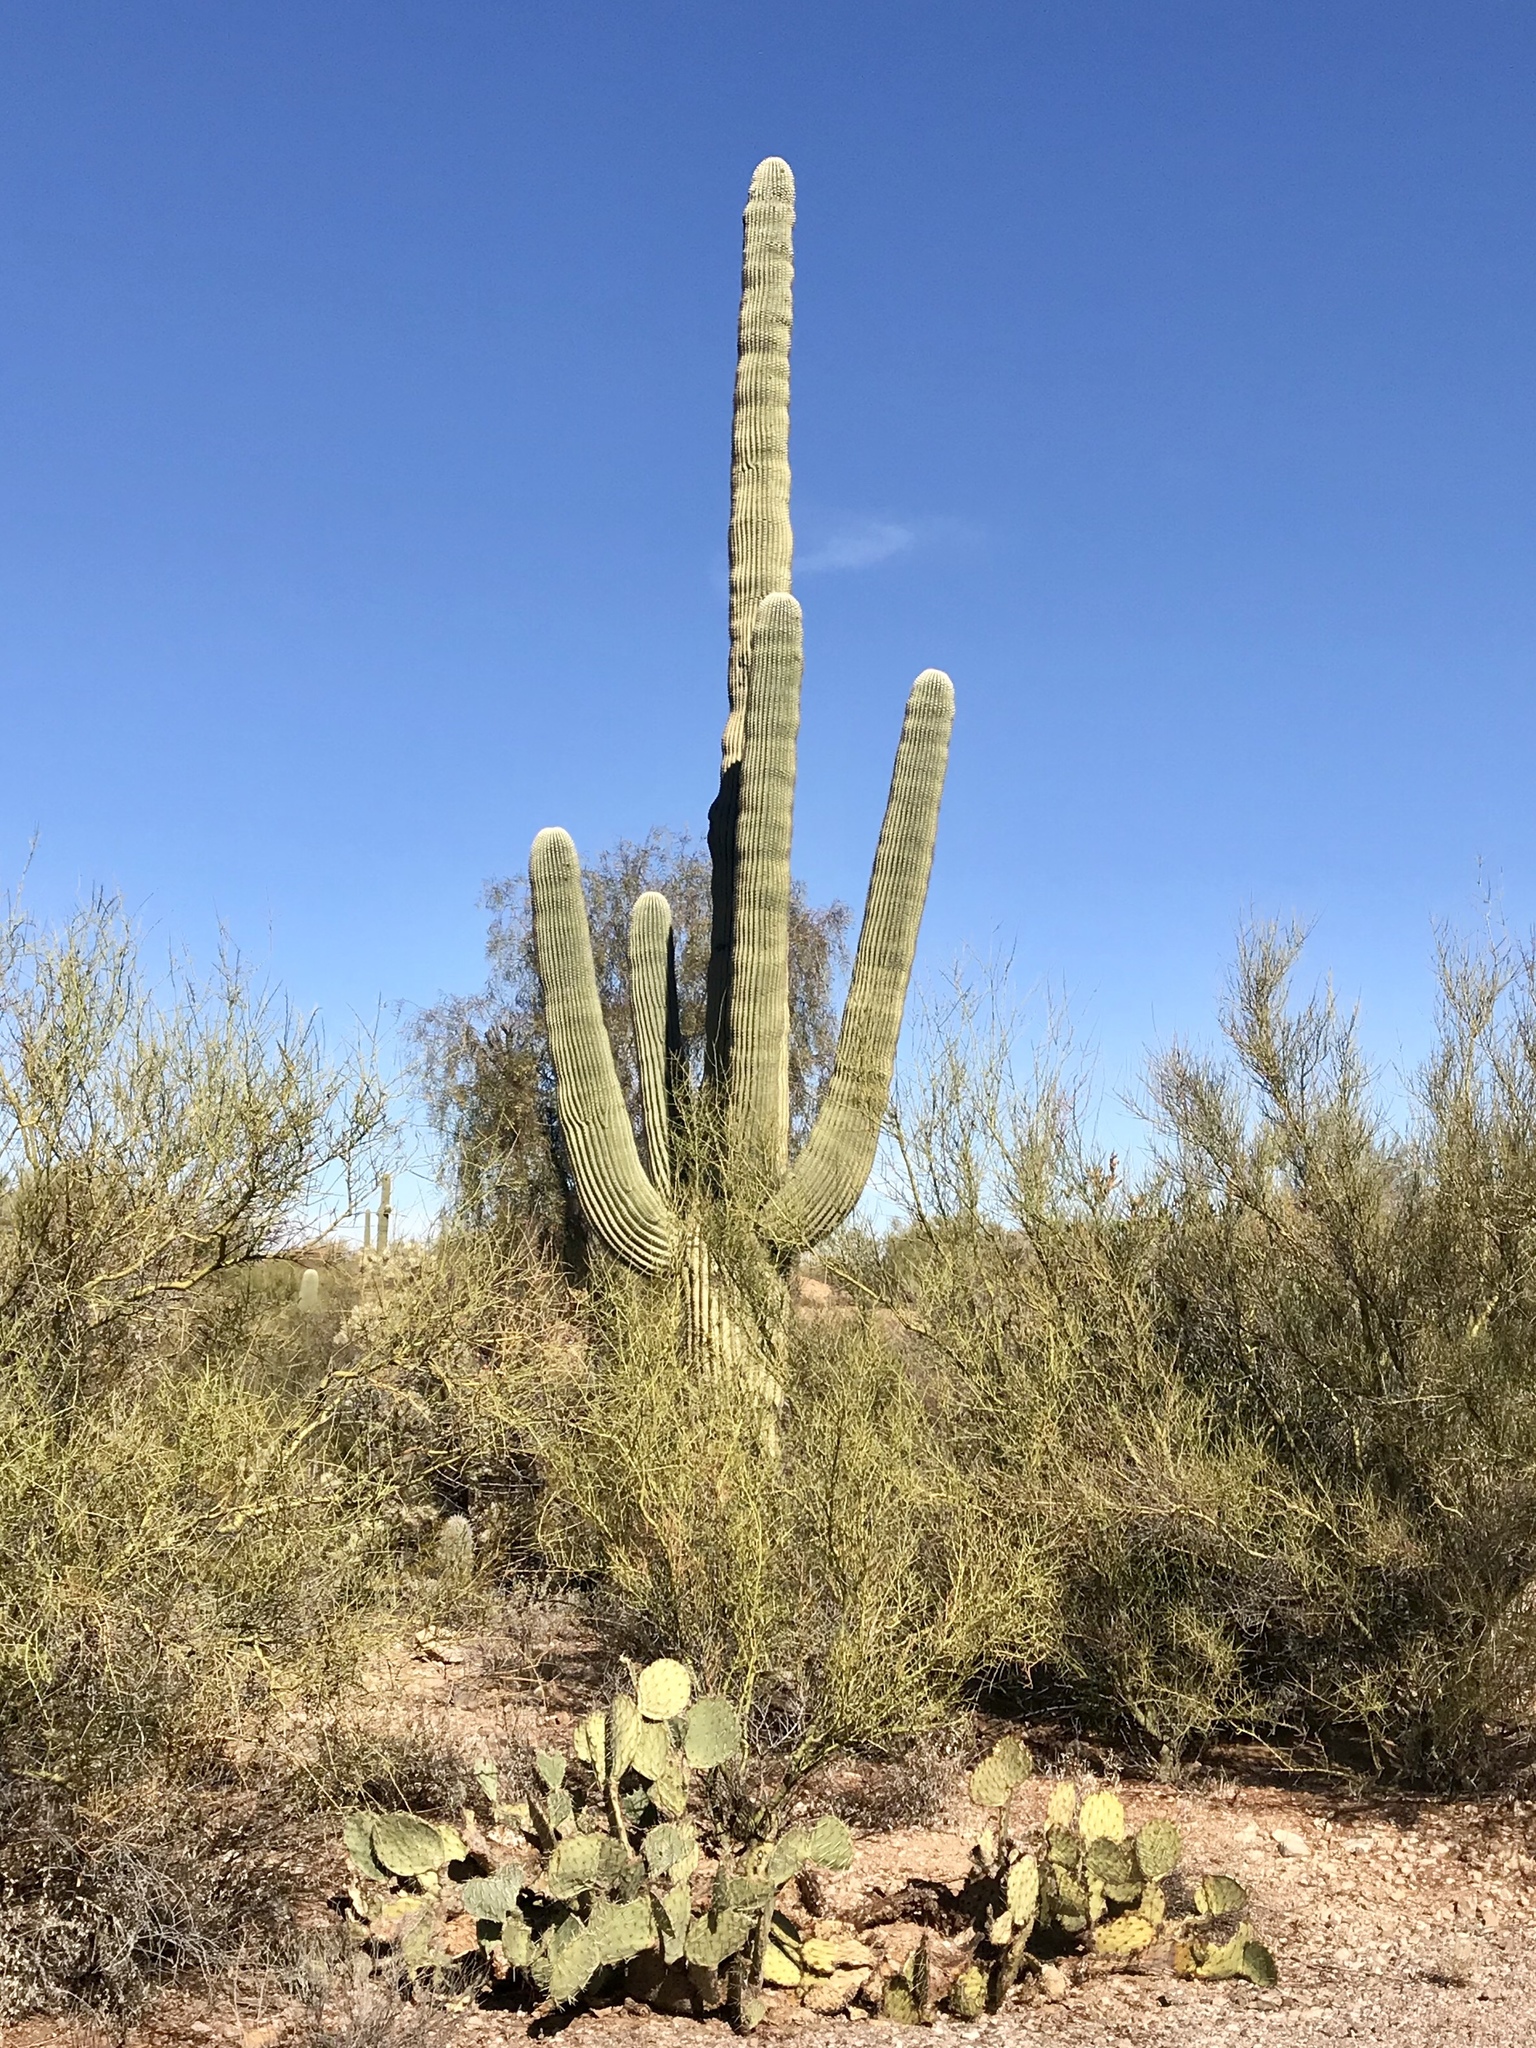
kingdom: Plantae
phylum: Tracheophyta
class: Magnoliopsida
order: Caryophyllales
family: Cactaceae
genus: Carnegiea
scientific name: Carnegiea gigantea
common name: Saguaro
